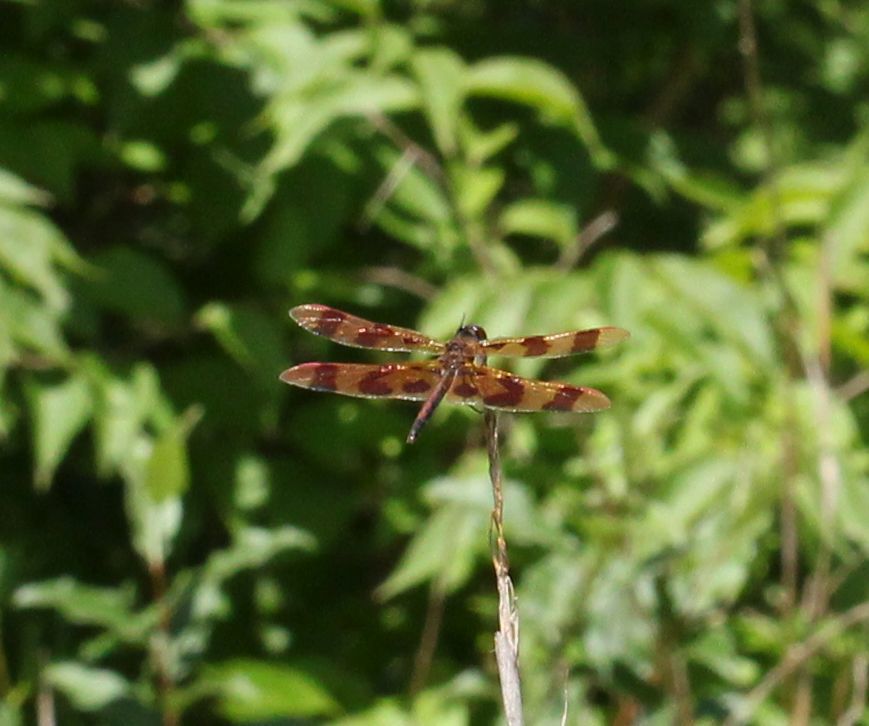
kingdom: Animalia
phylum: Arthropoda
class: Insecta
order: Odonata
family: Libellulidae
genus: Celithemis
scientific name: Celithemis eponina
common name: Halloween pennant
